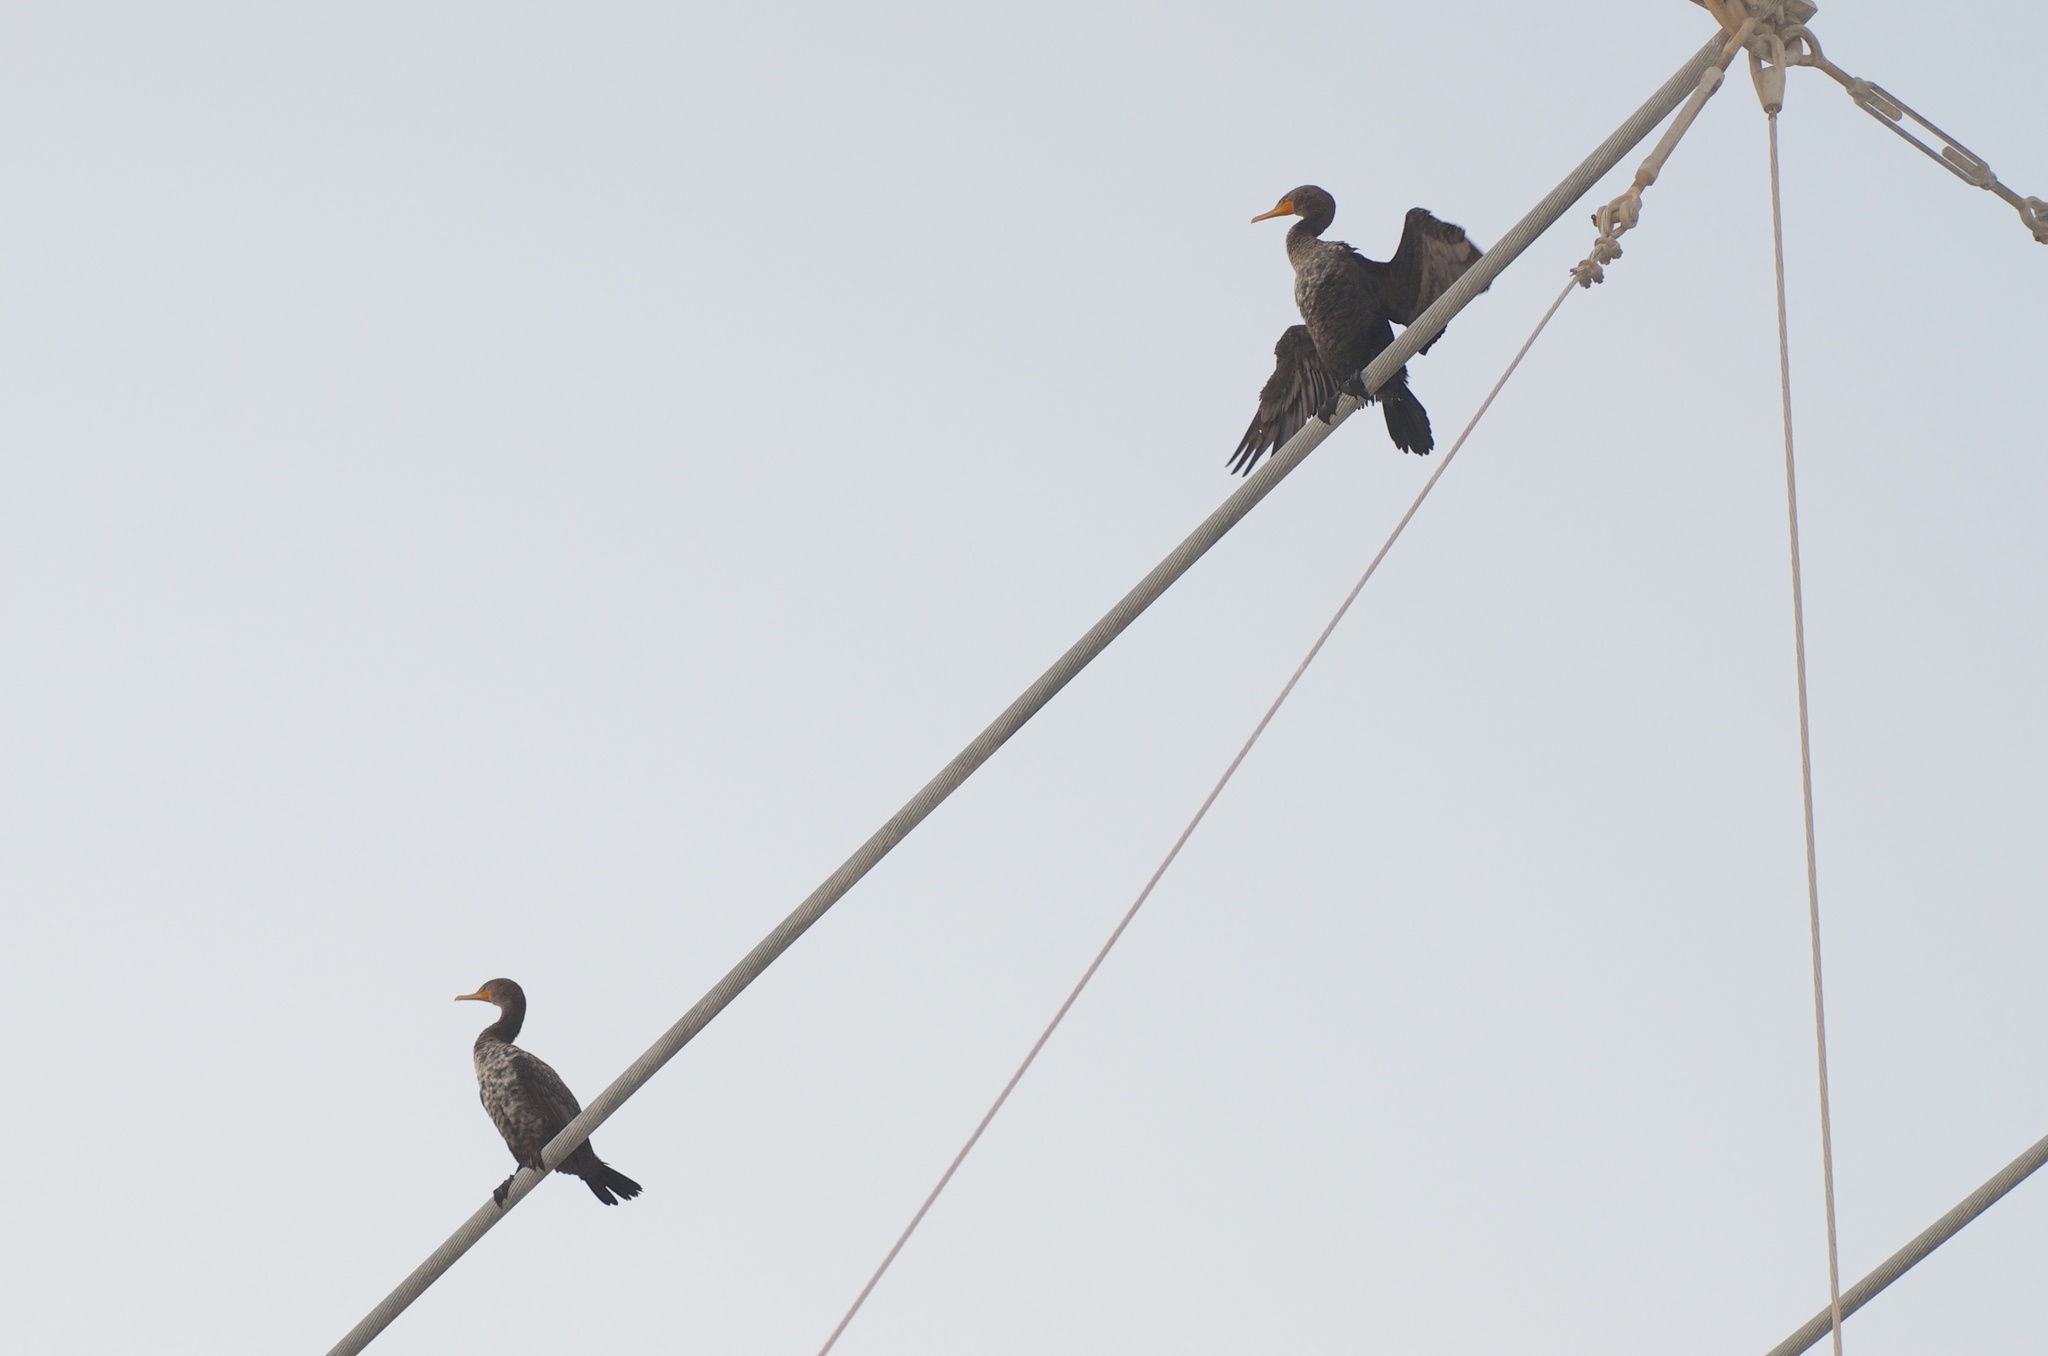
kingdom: Animalia
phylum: Chordata
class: Aves
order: Suliformes
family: Phalacrocoracidae
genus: Phalacrocorax
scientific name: Phalacrocorax auritus
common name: Double-crested cormorant
